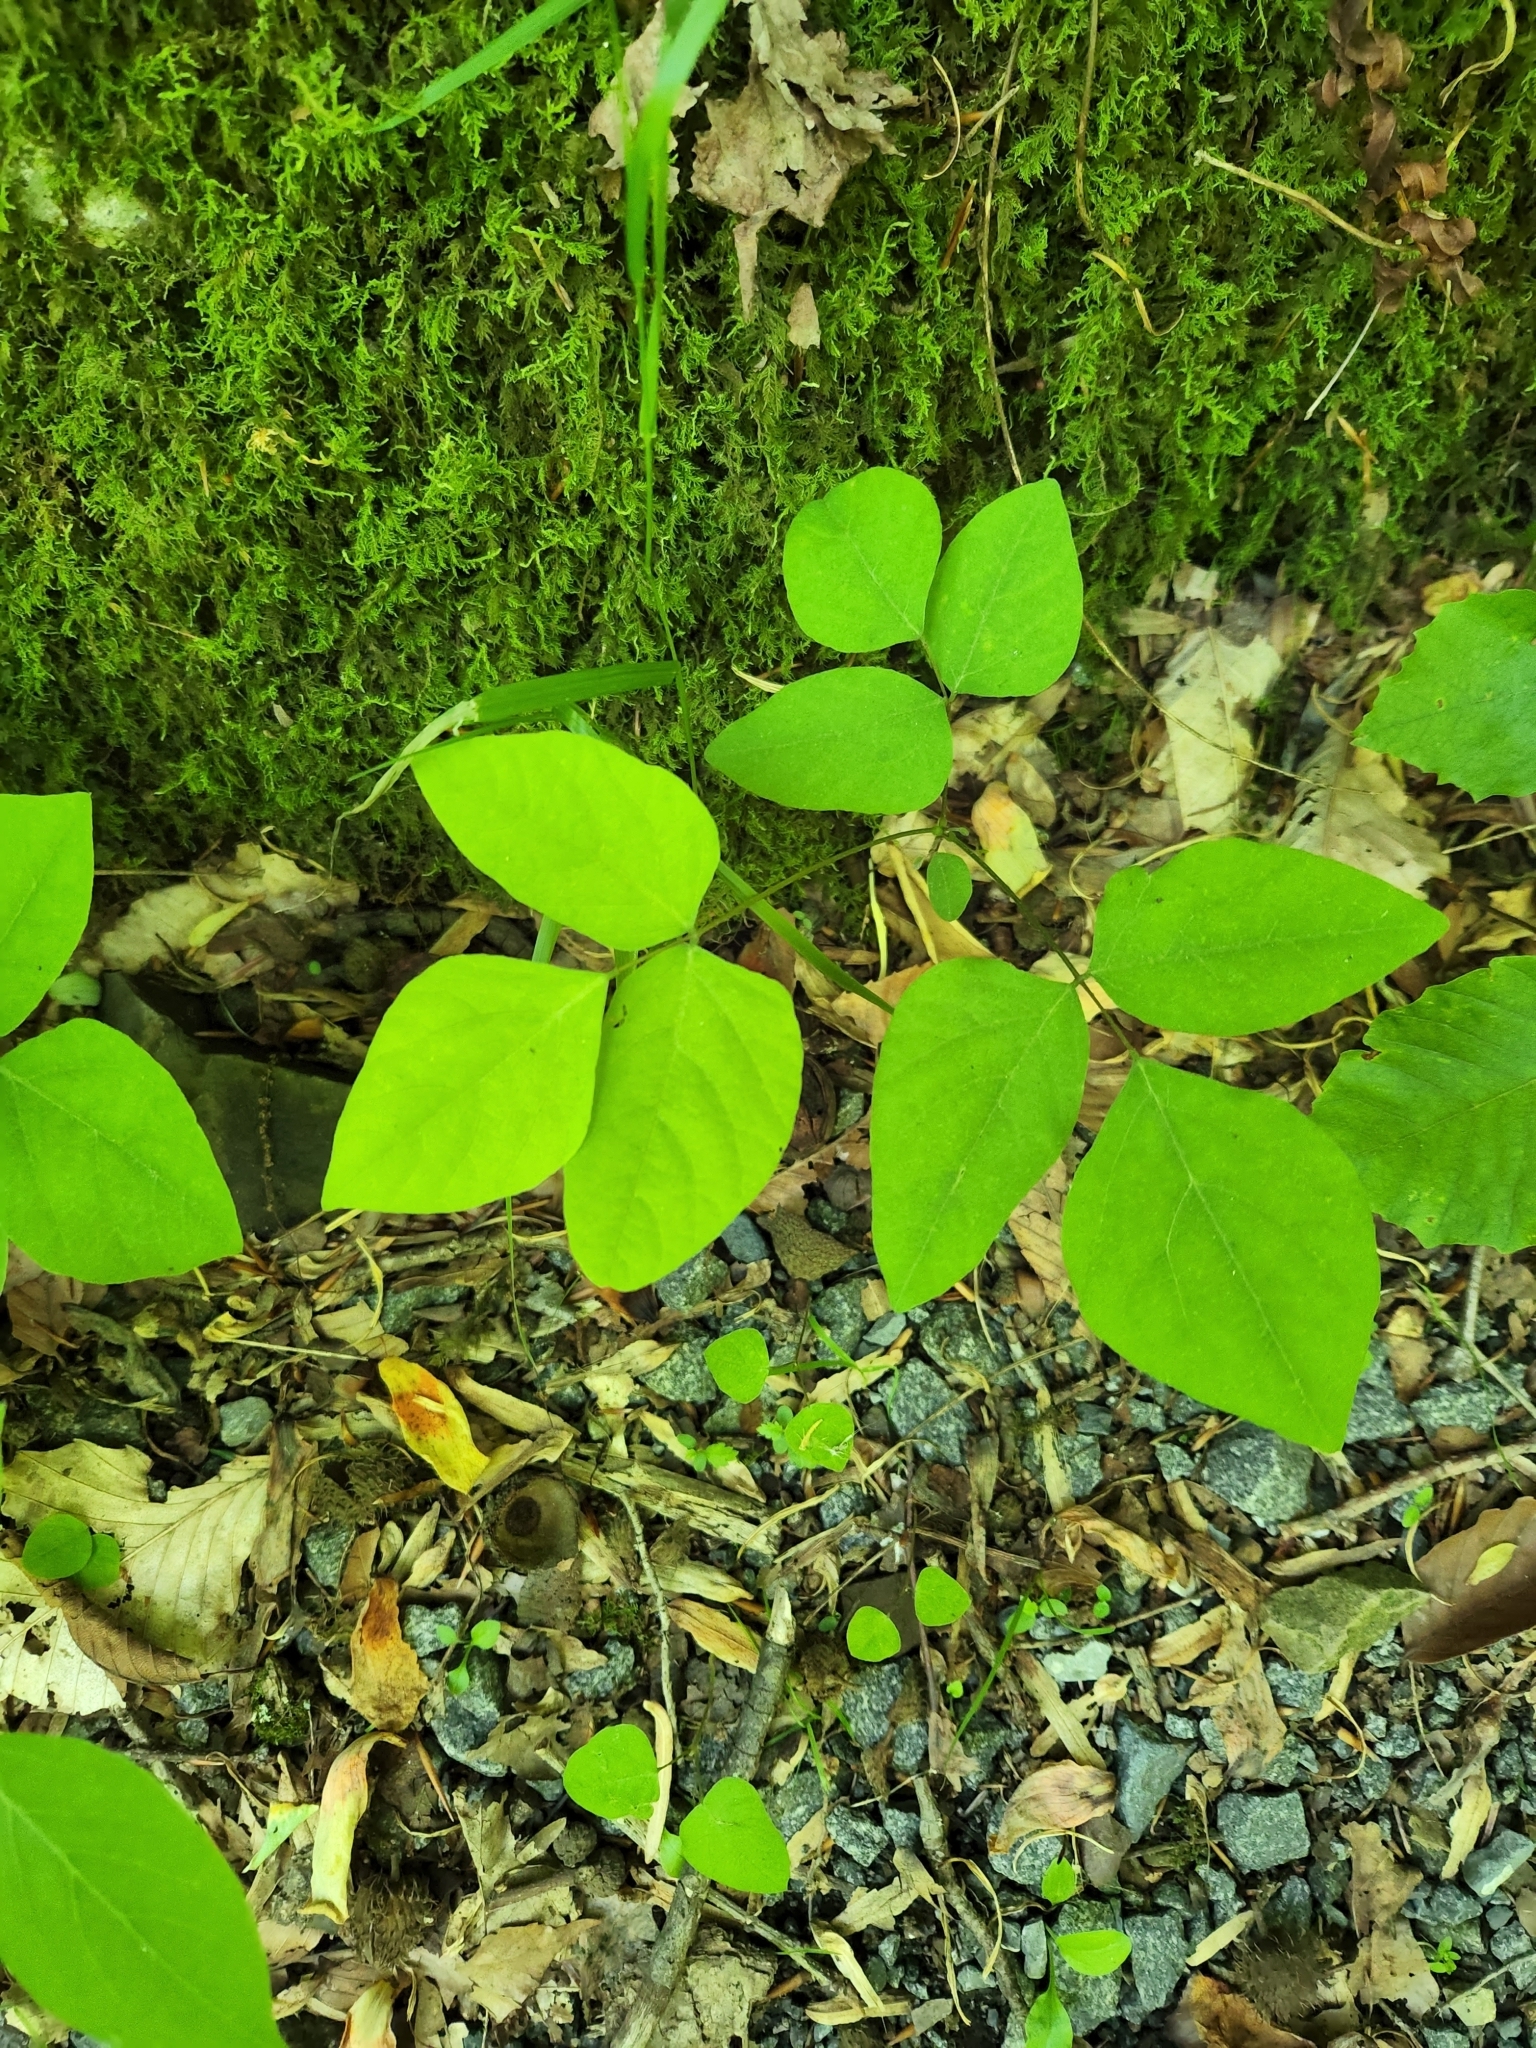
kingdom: Plantae
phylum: Tracheophyta
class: Magnoliopsida
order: Fabales
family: Fabaceae
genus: Amphicarpaea
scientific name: Amphicarpaea bracteata
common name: American hog peanut
